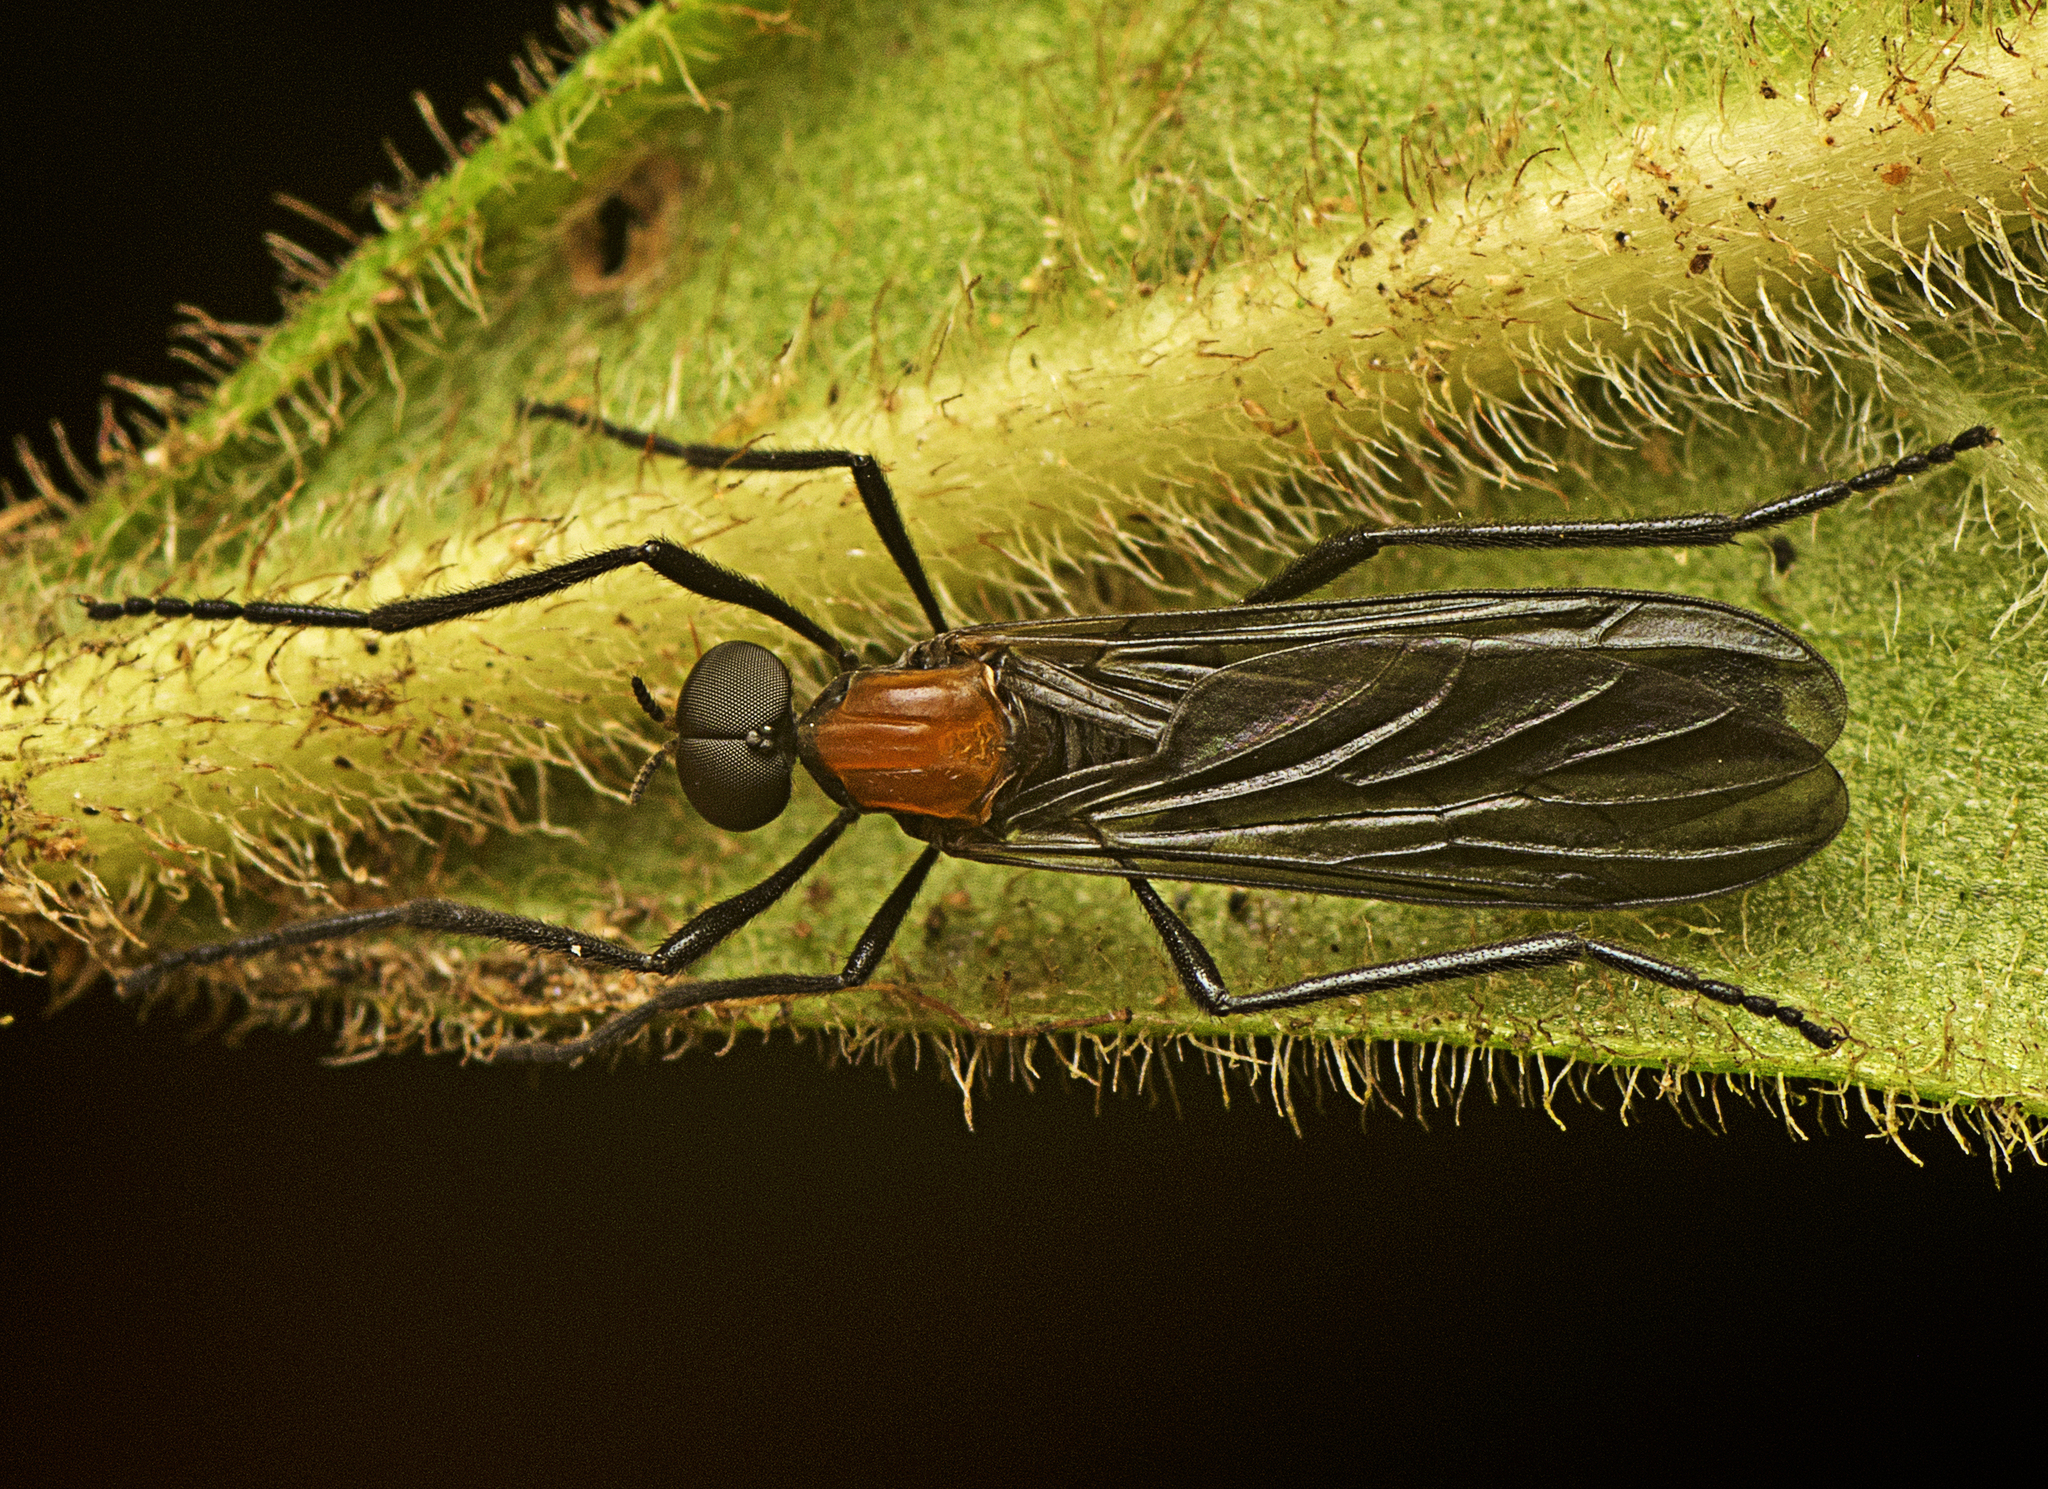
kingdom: Animalia
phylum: Arthropoda
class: Insecta
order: Diptera
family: Bibionidae
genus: Plecia
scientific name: Plecia dimidiata
